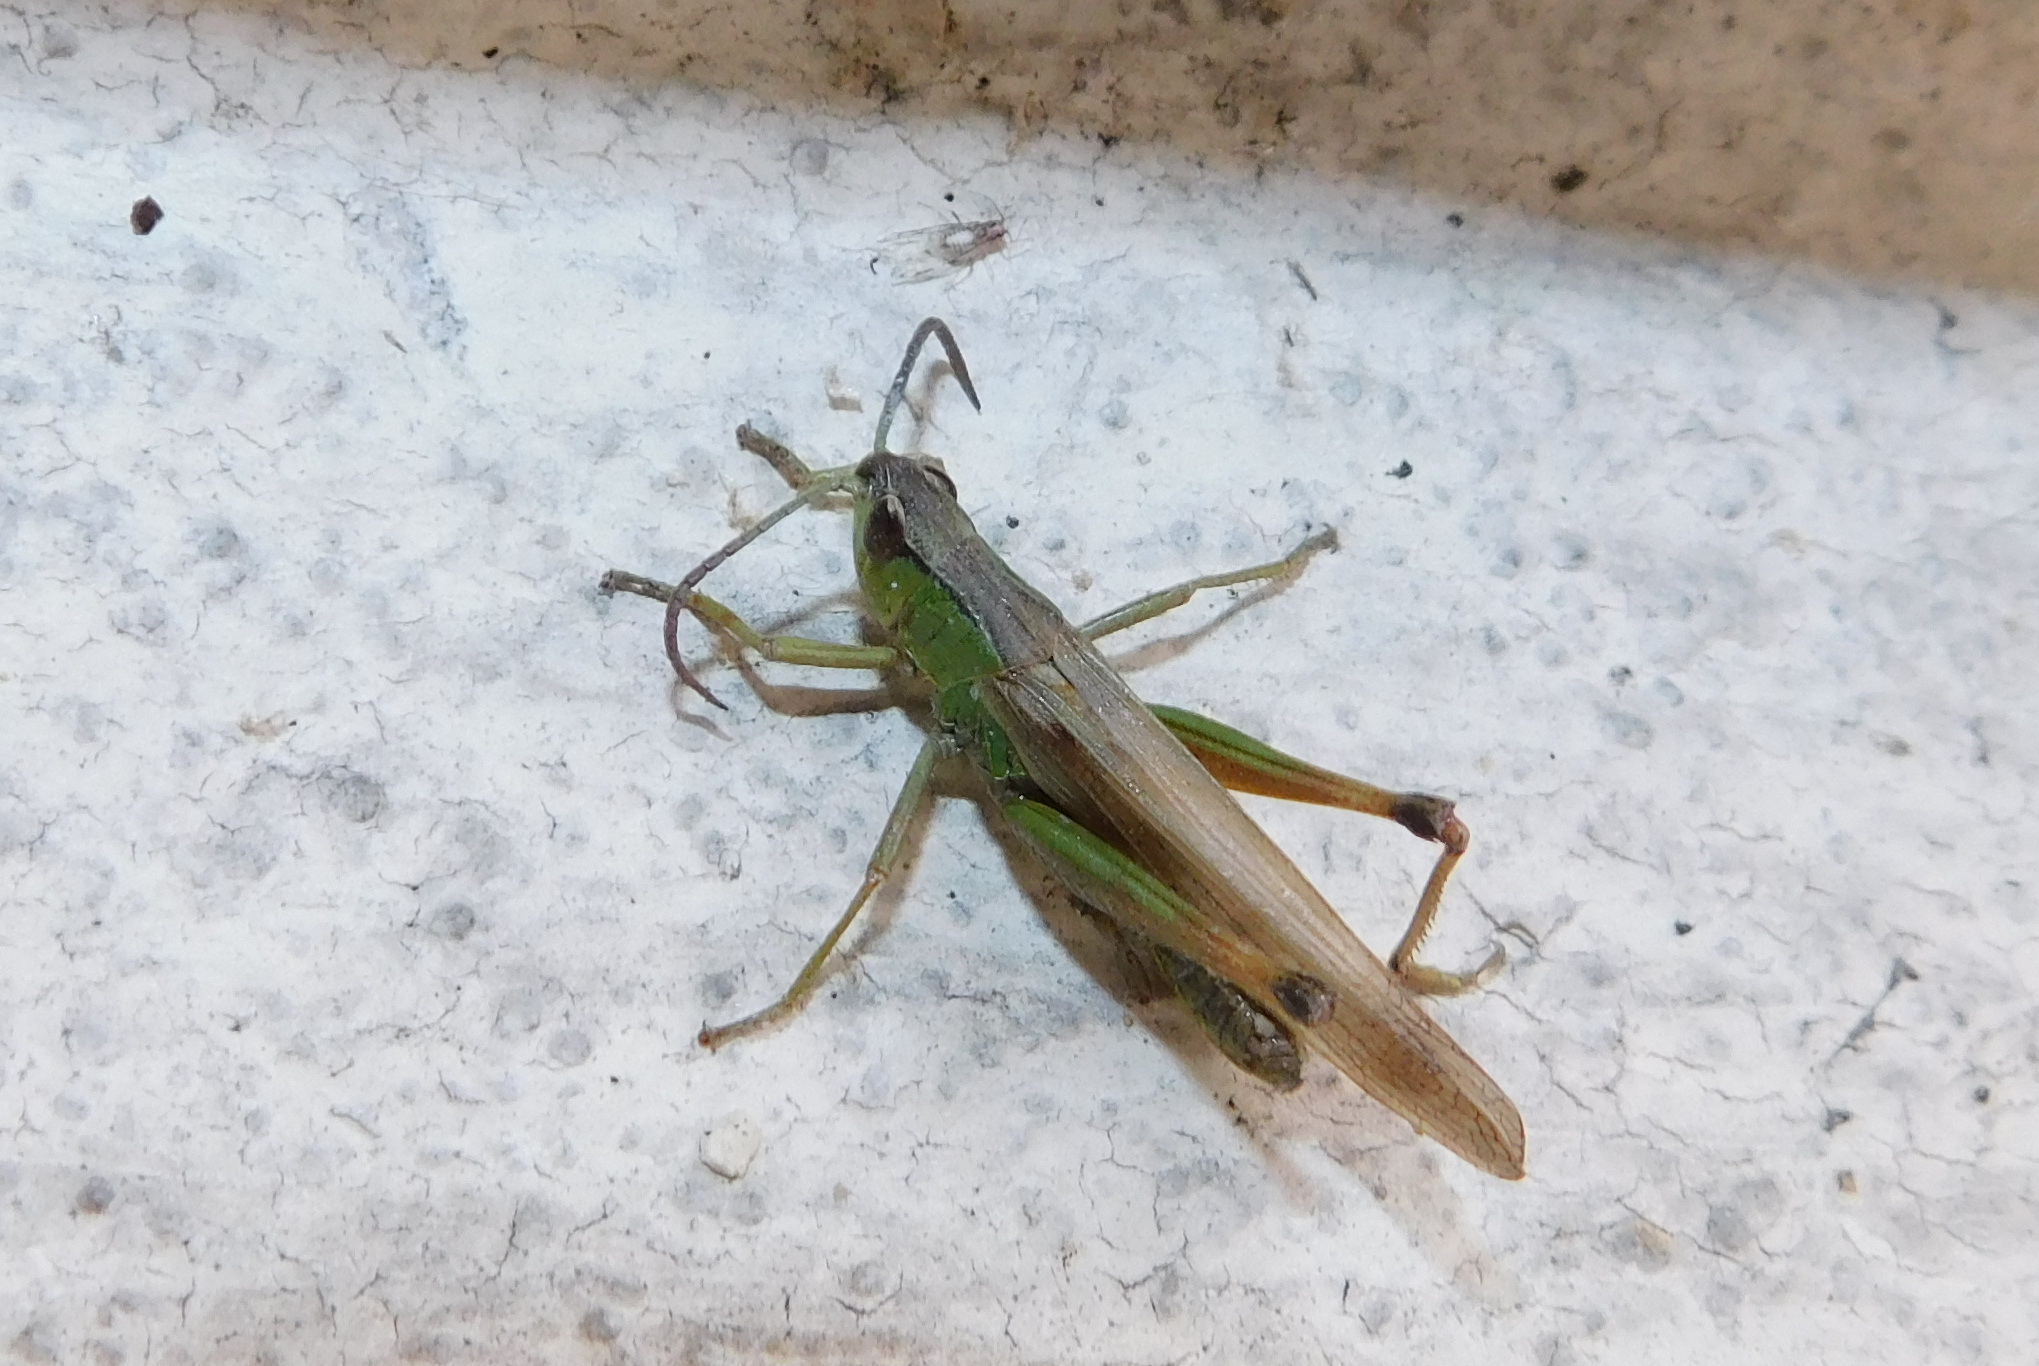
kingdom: Animalia
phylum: Arthropoda
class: Insecta
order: Orthoptera
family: Acrididae
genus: Pseudochorthippus
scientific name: Pseudochorthippus parallelus
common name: Meadow grasshopper
